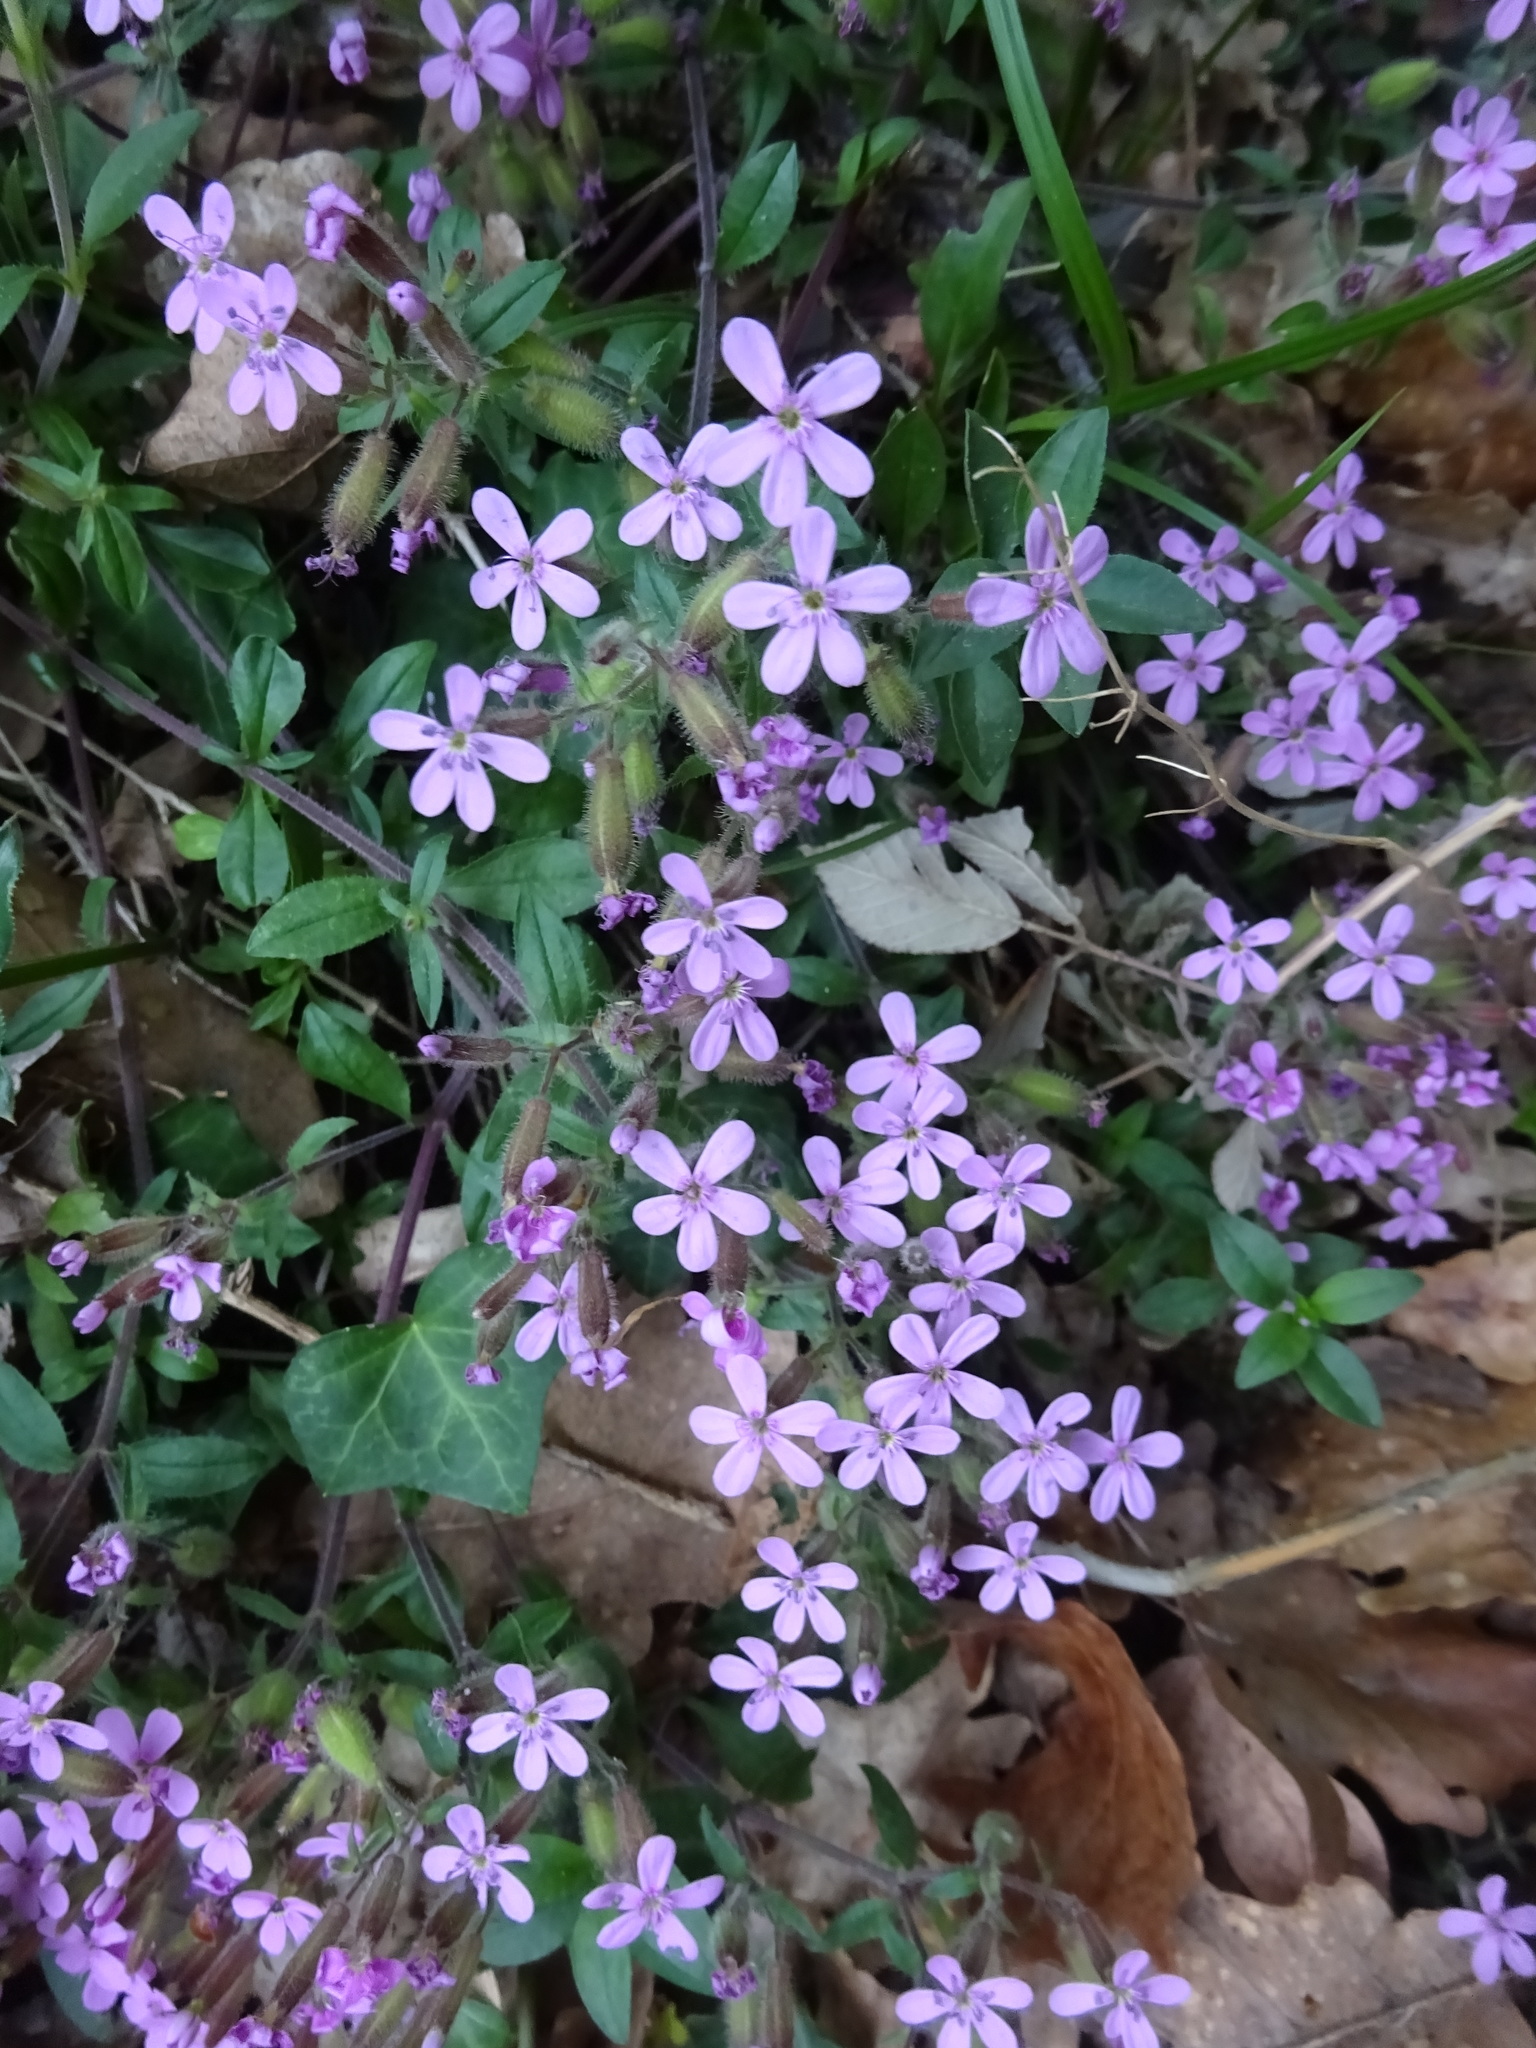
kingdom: Plantae
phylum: Tracheophyta
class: Magnoliopsida
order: Caryophyllales
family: Caryophyllaceae
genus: Saponaria
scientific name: Saponaria ocymoides
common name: Rock soapwort
